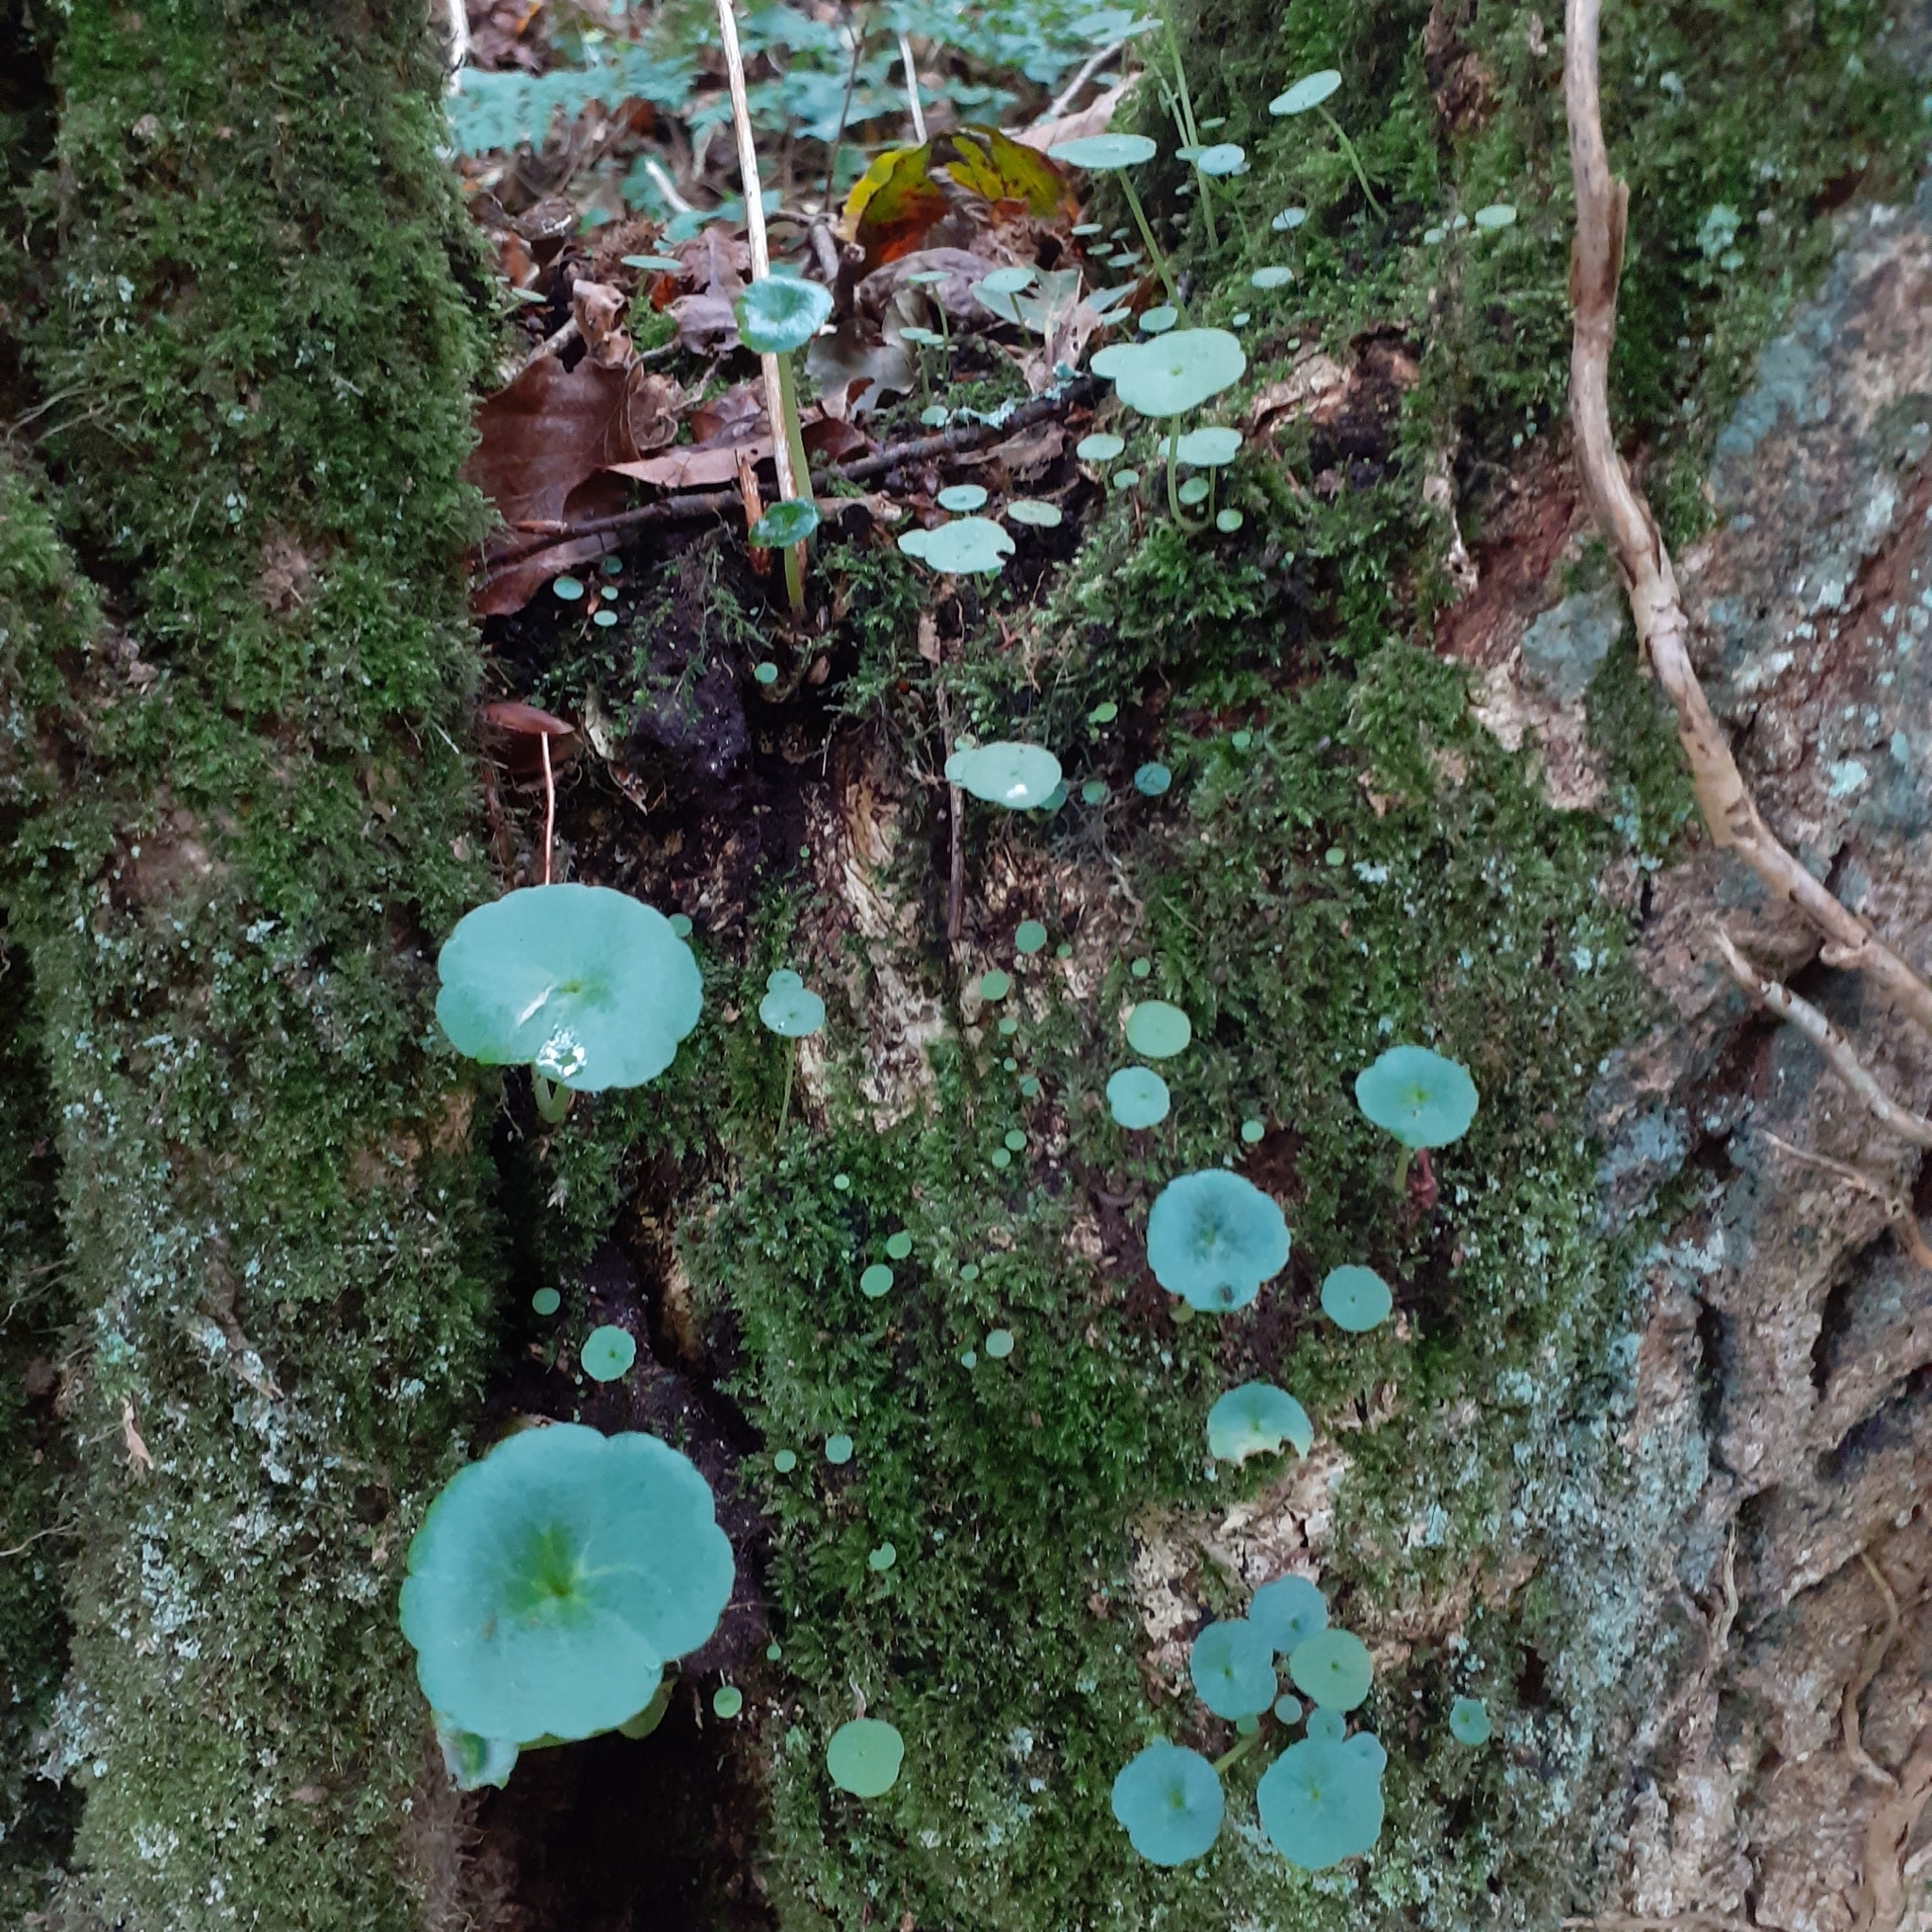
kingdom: Plantae
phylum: Tracheophyta
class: Magnoliopsida
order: Saxifragales
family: Crassulaceae
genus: Umbilicus
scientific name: Umbilicus rupestris
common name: Navelwort
